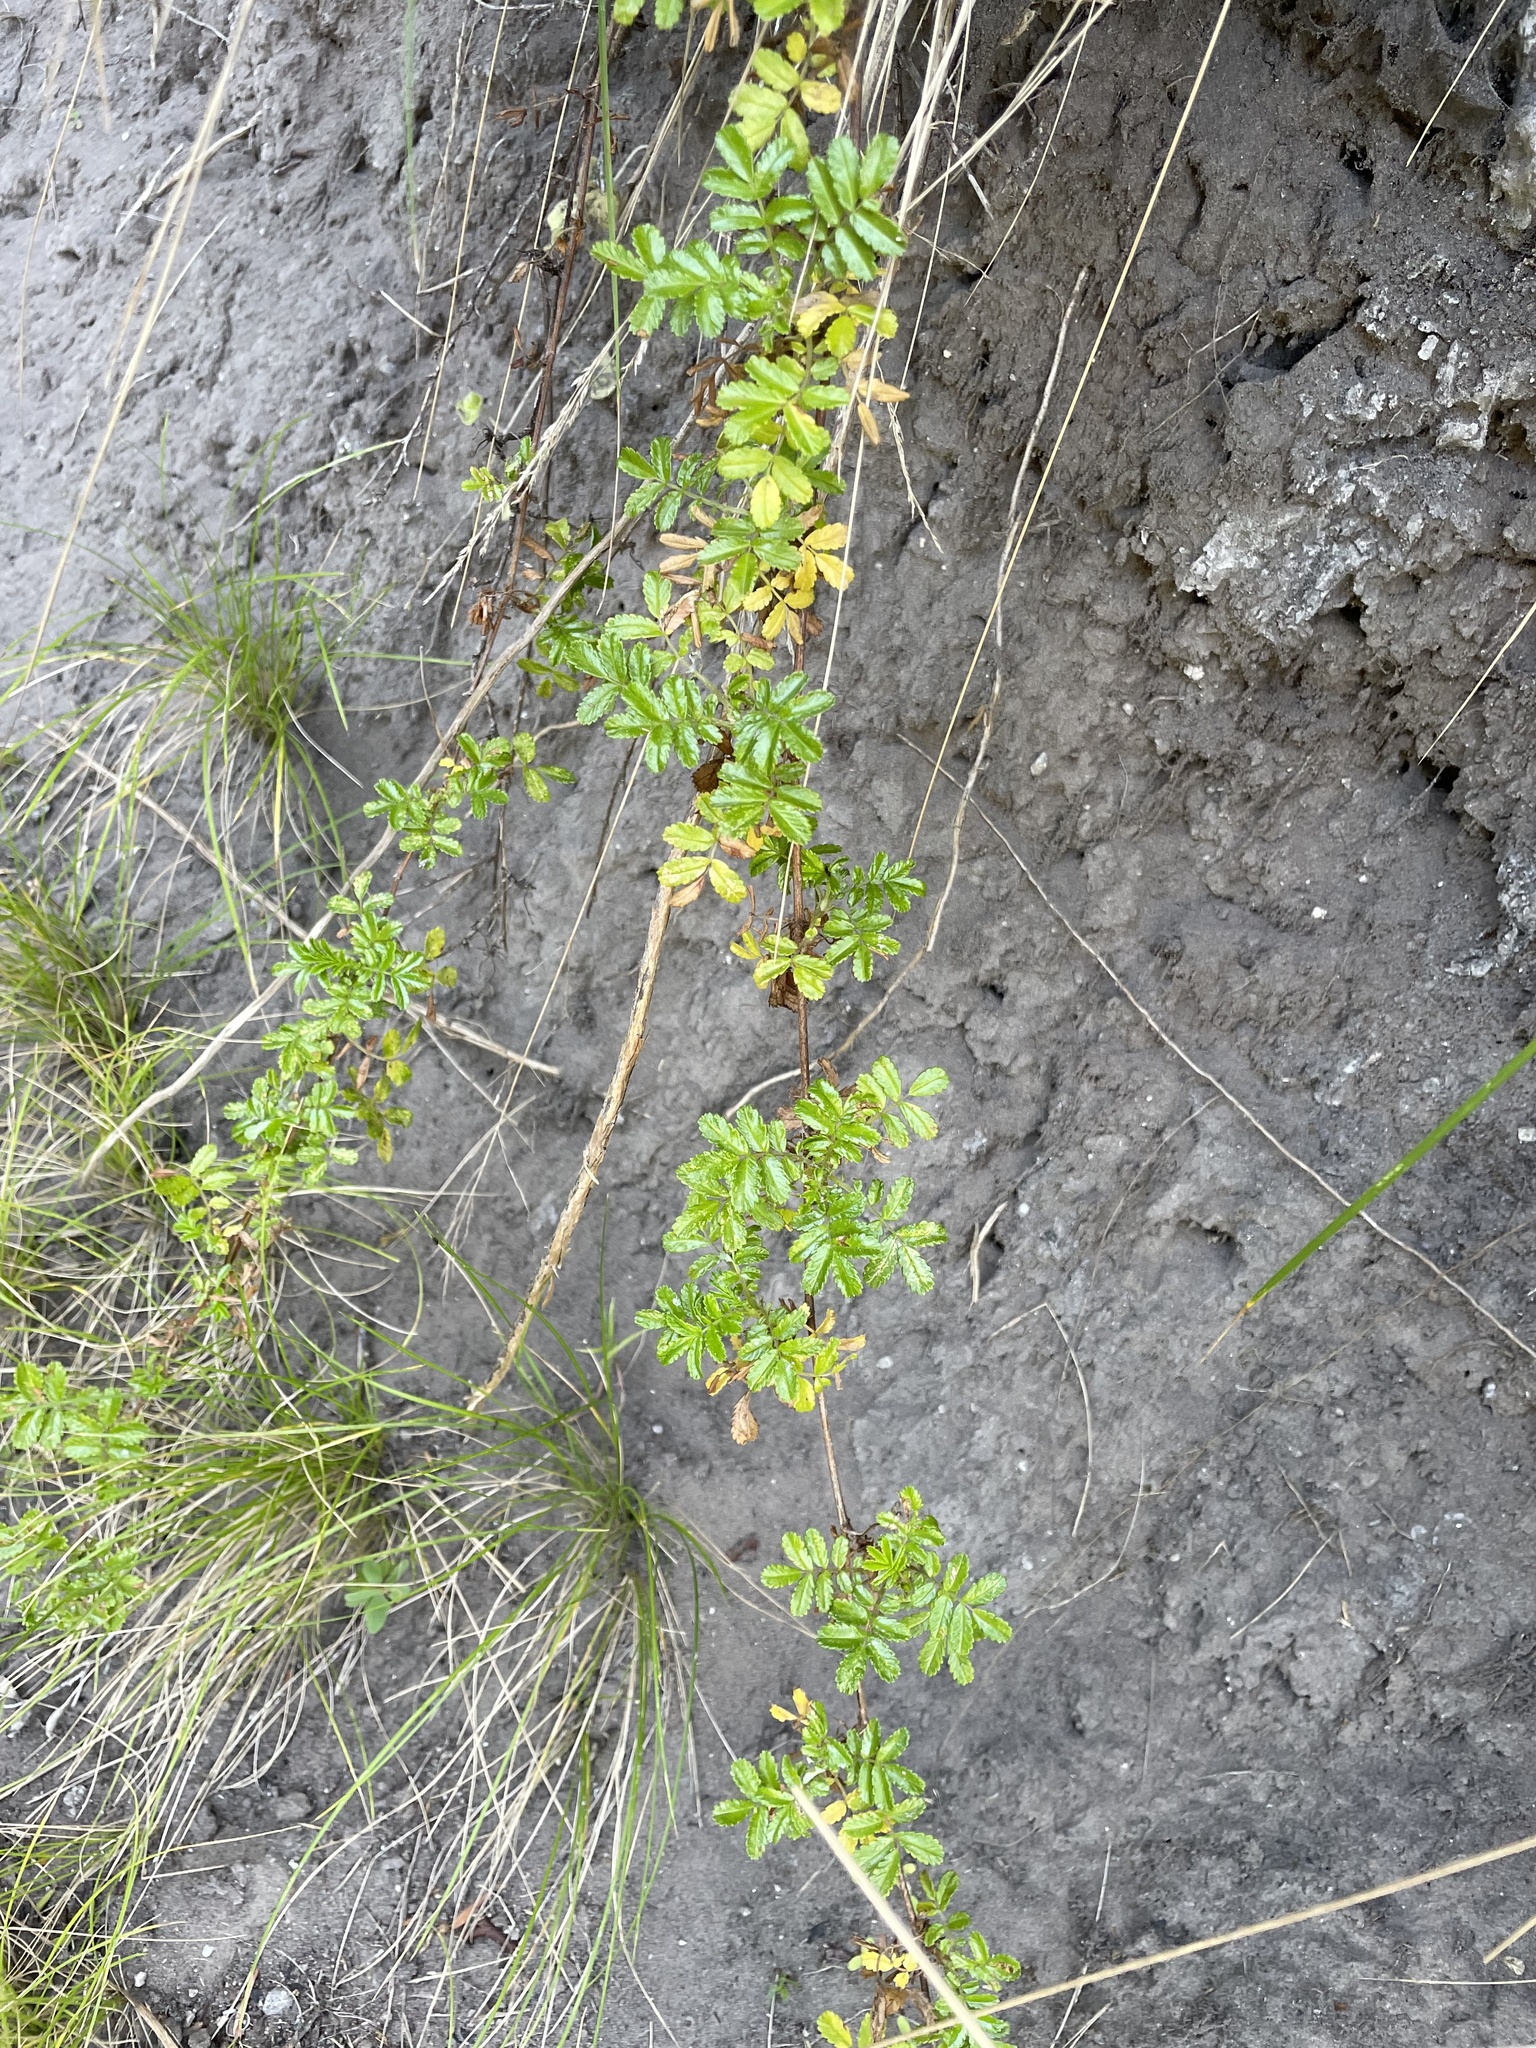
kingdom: Plantae
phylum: Tracheophyta
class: Magnoliopsida
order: Rosales
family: Rosaceae
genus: Acaena
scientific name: Acaena novae-zelandiae
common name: Pirri-pirri-bur
